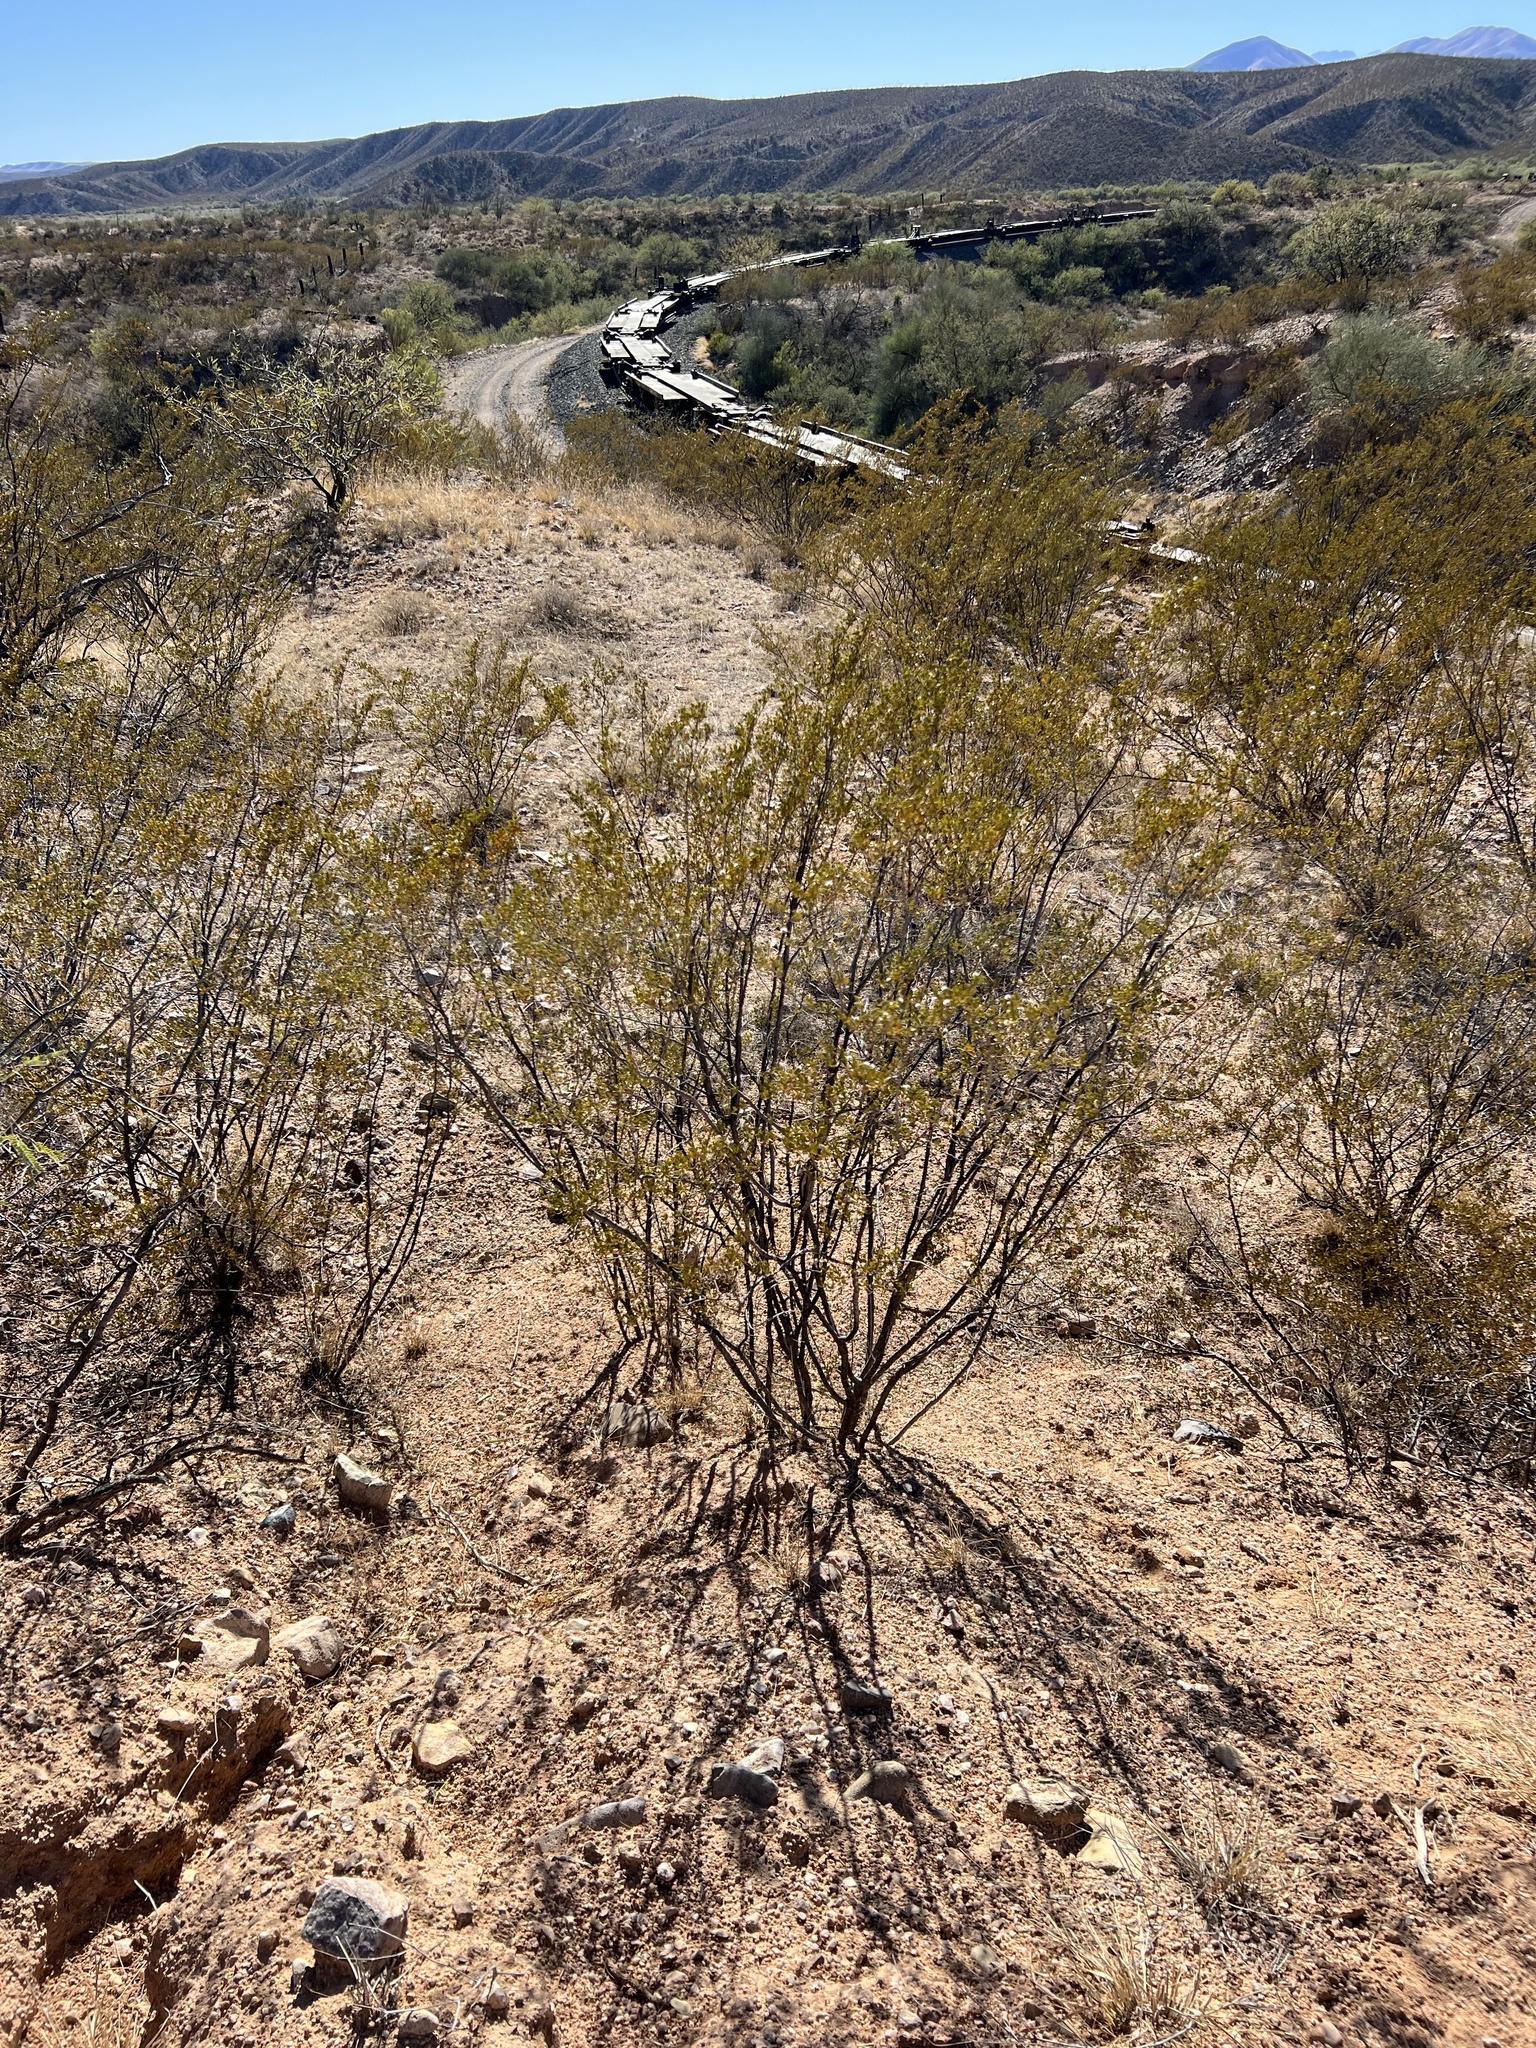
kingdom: Plantae
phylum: Tracheophyta
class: Magnoliopsida
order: Zygophyllales
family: Zygophyllaceae
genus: Larrea
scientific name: Larrea tridentata
